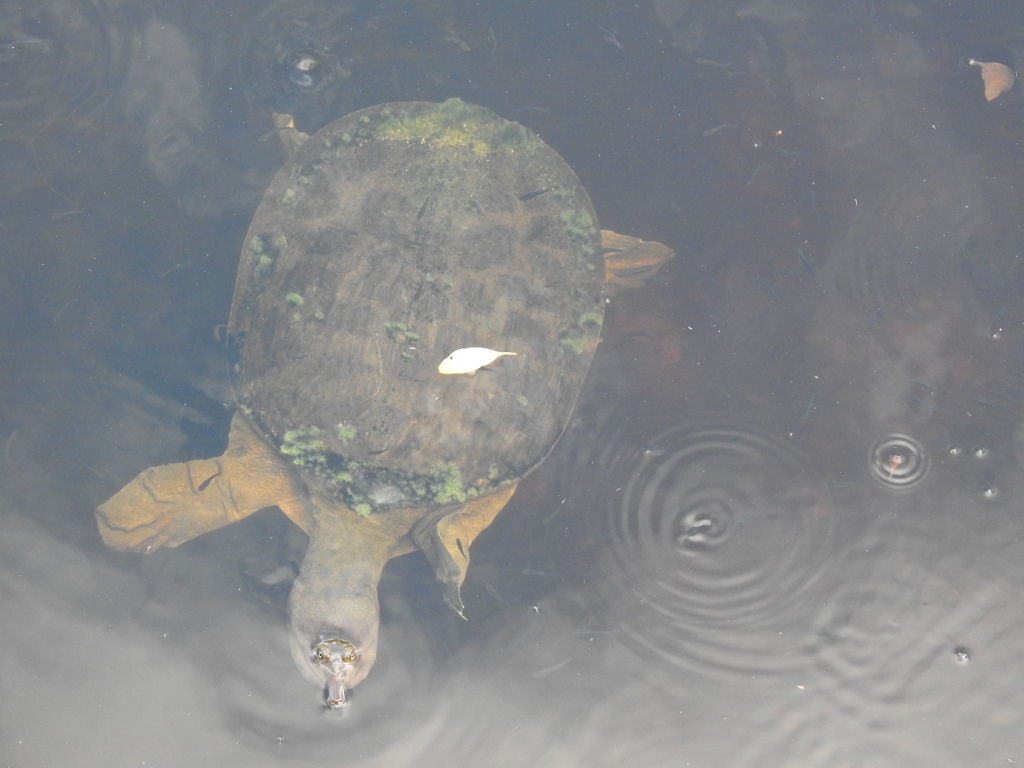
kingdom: Animalia
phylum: Chordata
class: Testudines
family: Trionychidae
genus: Apalone
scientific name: Apalone ferox
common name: Florida softshell turtle
